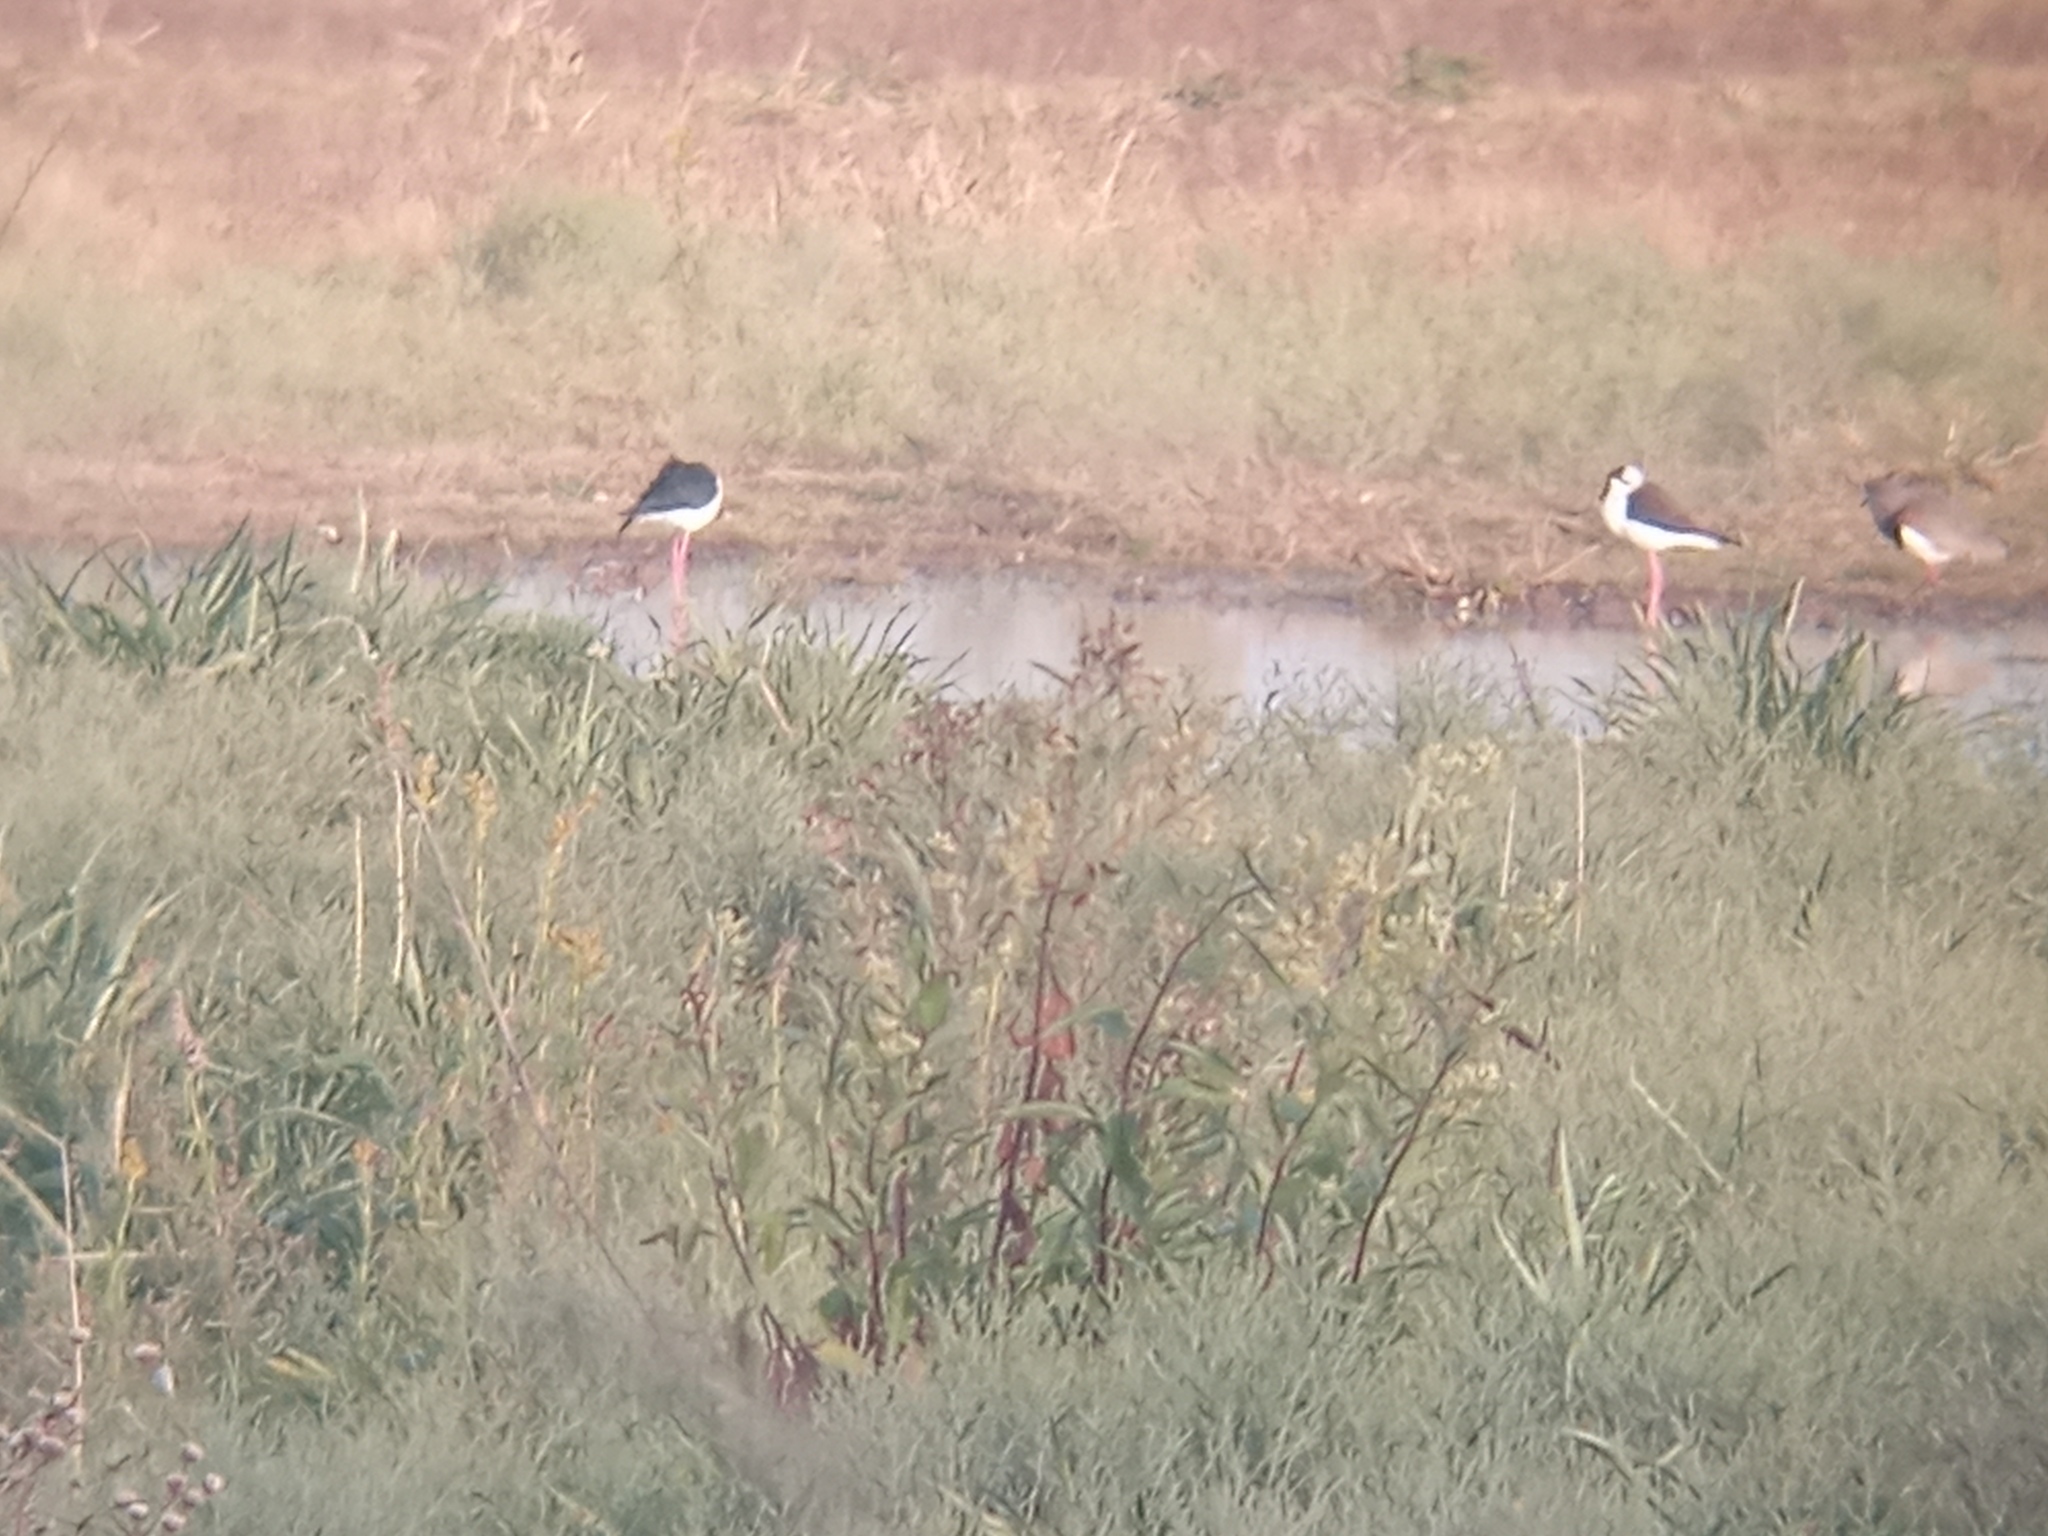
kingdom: Animalia
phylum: Chordata
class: Aves
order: Charadriiformes
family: Charadriidae
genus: Vanellus
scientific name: Vanellus chilensis
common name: Southern lapwing
